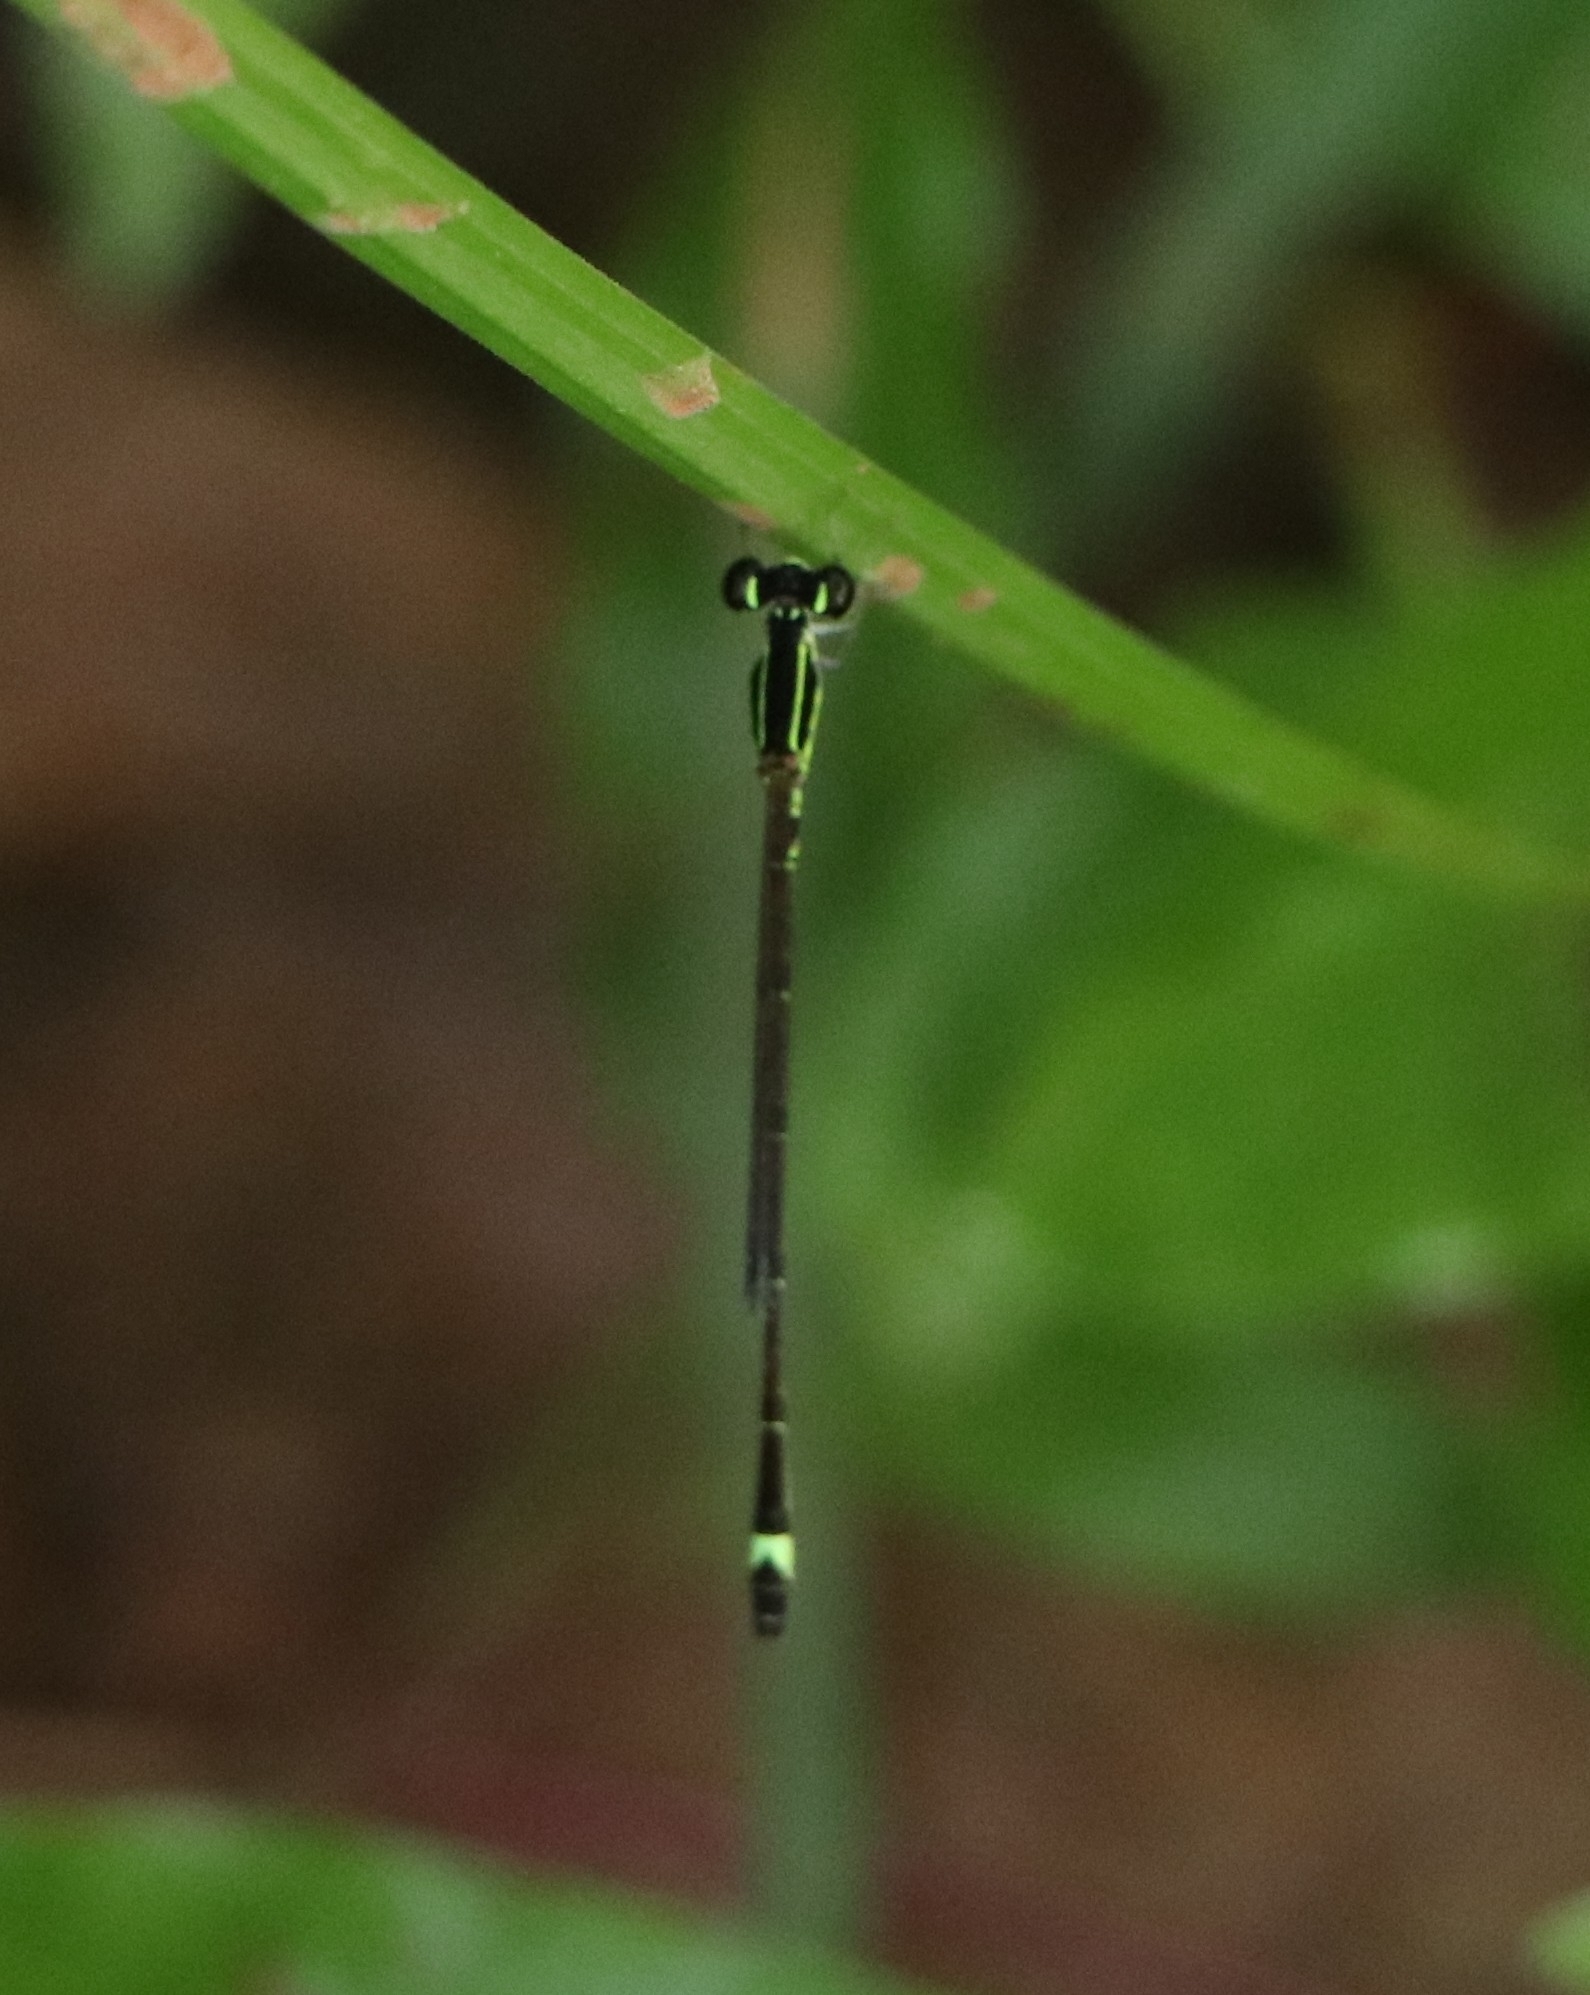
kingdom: Animalia
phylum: Arthropoda
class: Insecta
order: Odonata
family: Coenagrionidae
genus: Mortonagrion
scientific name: Mortonagrion varralli
